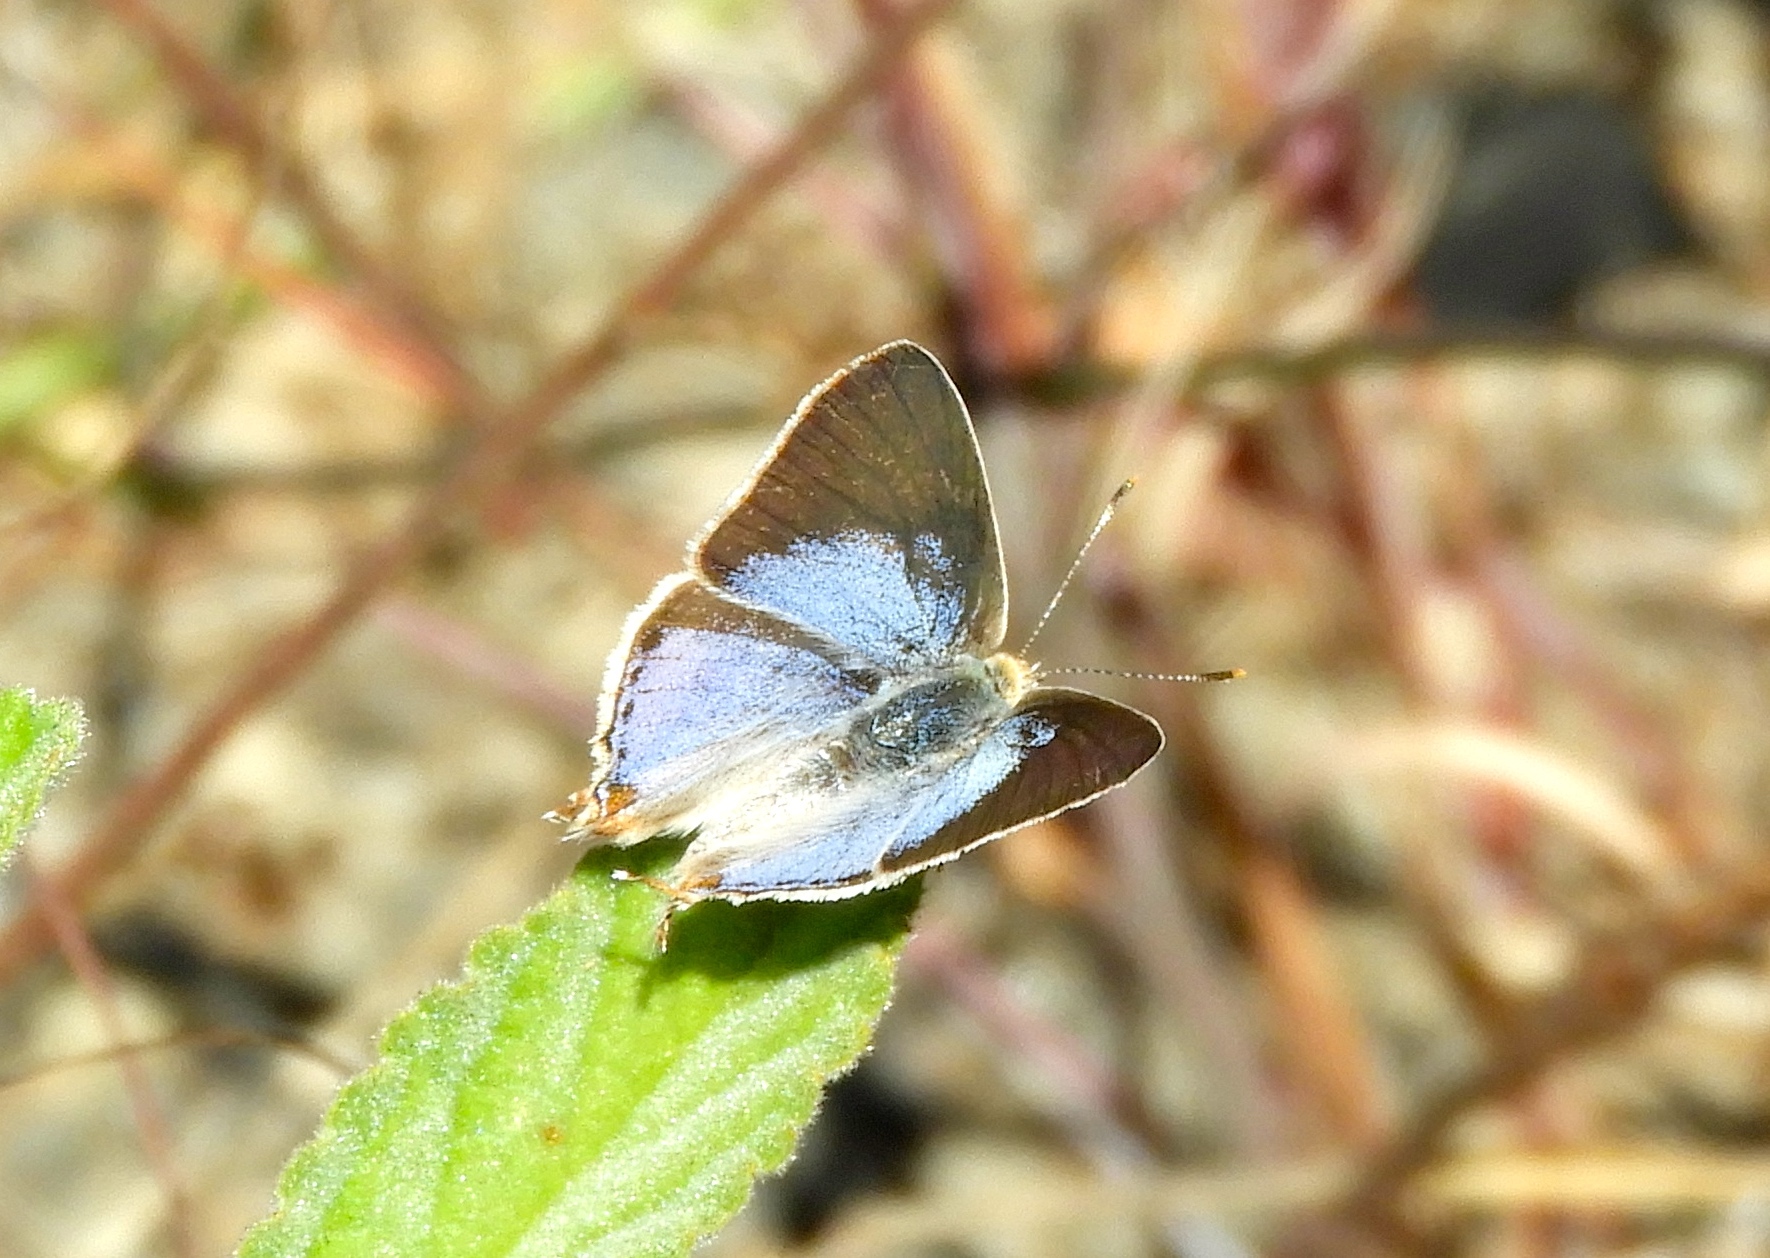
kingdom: Animalia
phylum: Arthropoda
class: Insecta
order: Lepidoptera
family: Lycaenidae
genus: Dolymorpha
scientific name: Dolymorpha jada
